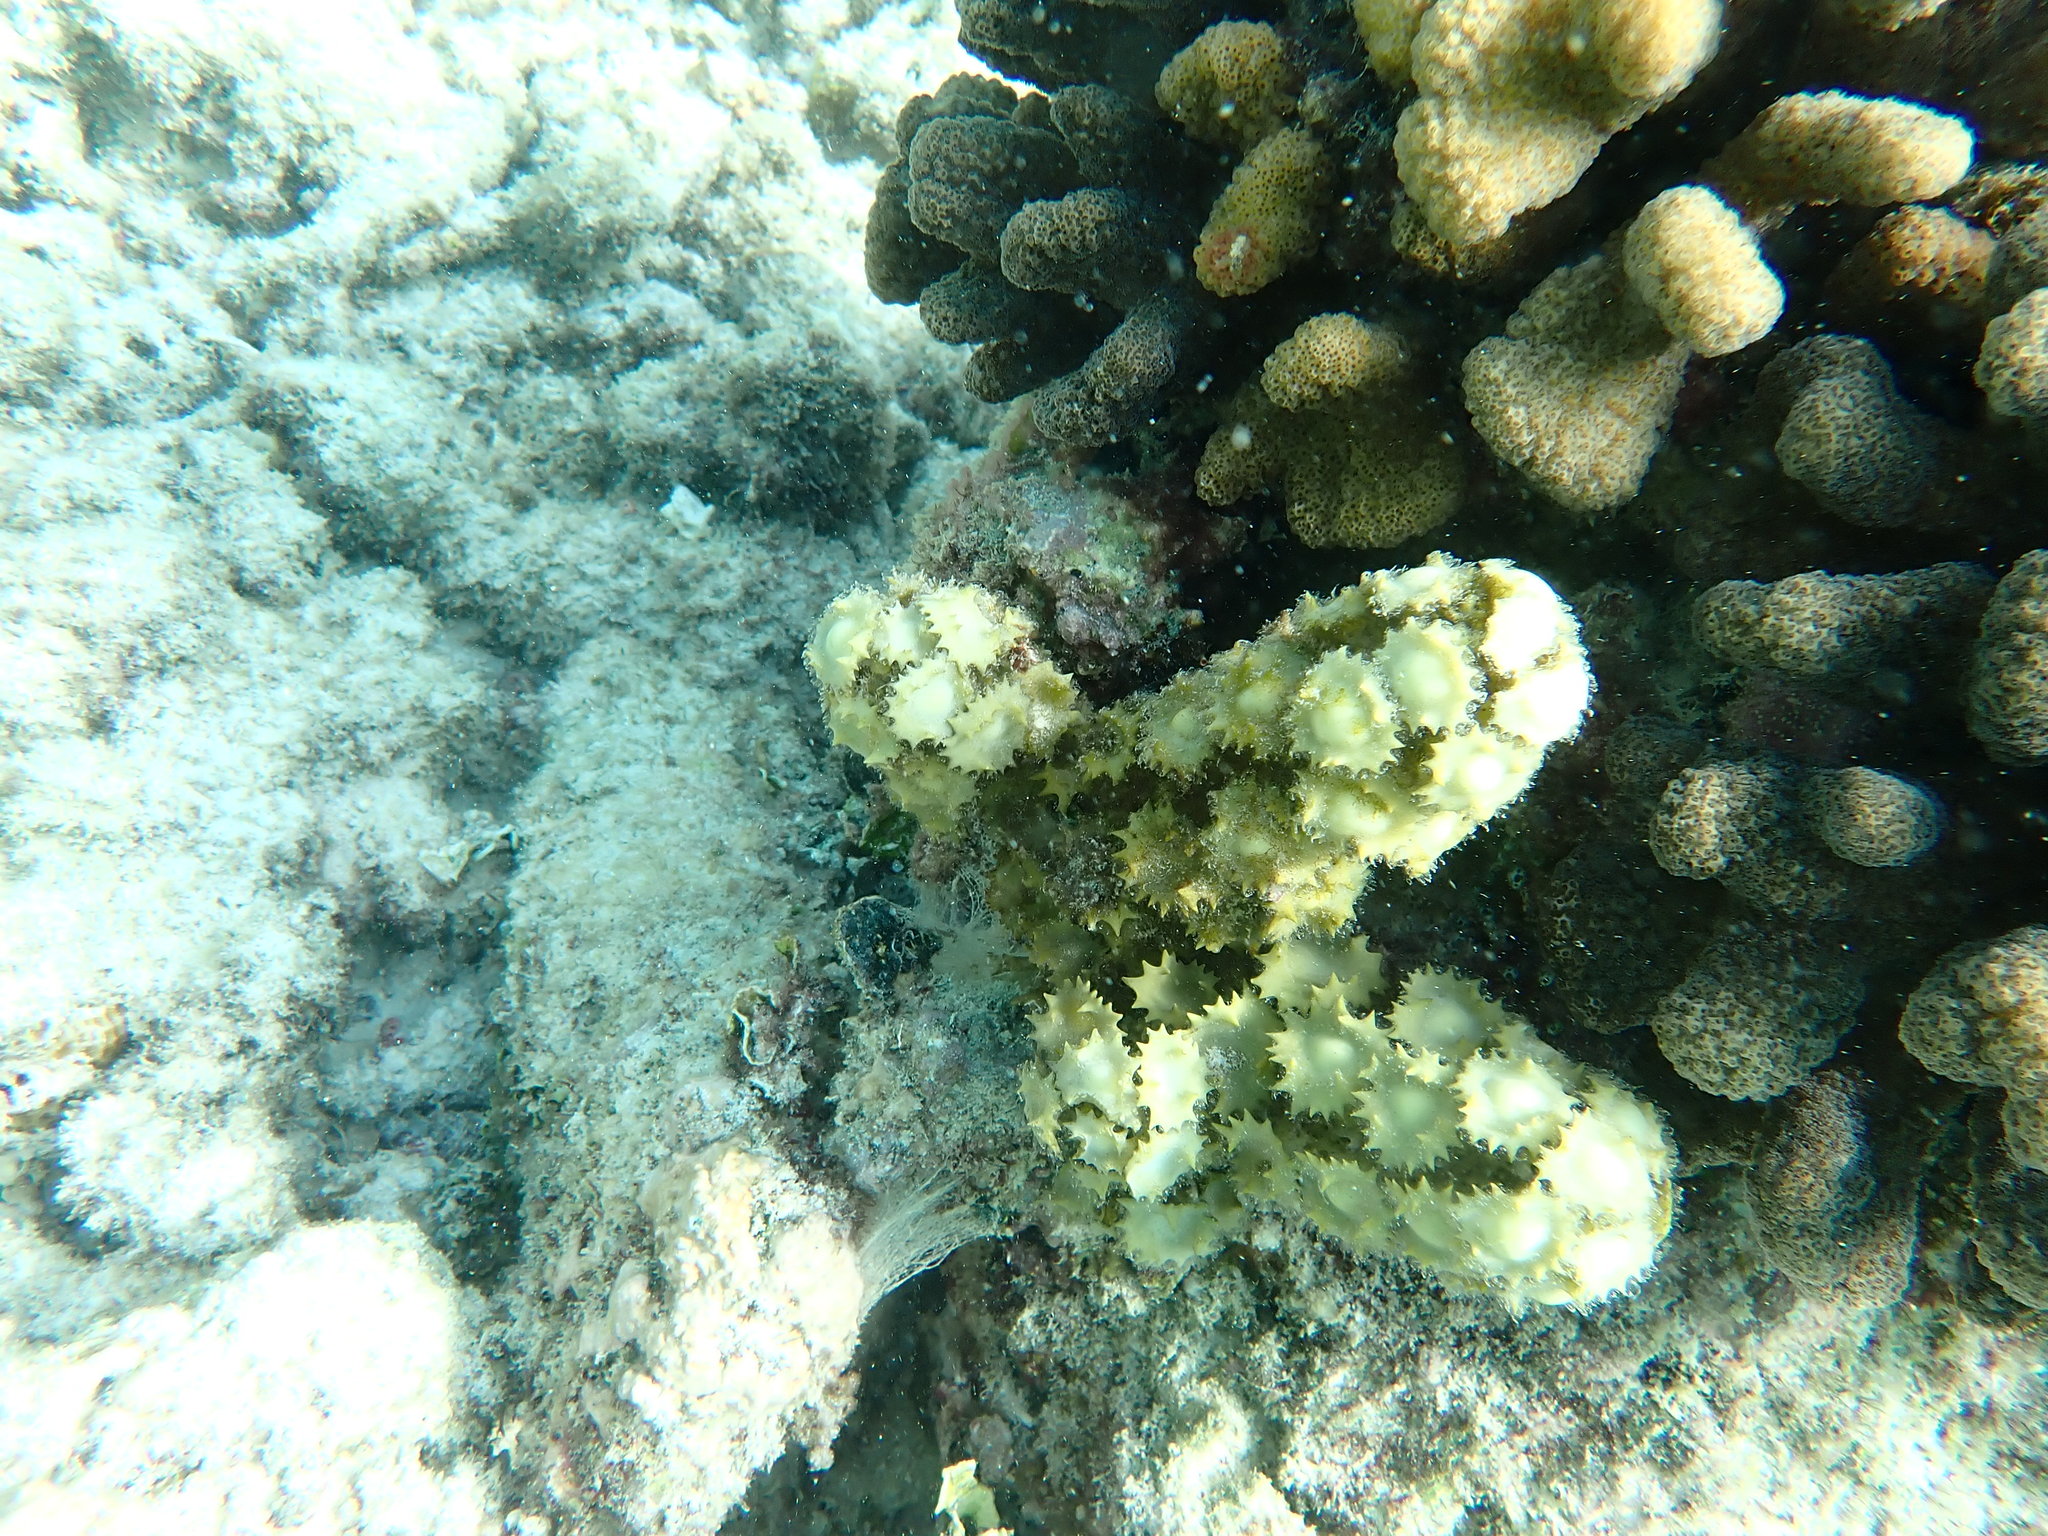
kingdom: Chromista
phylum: Ochrophyta
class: Phaeophyceae
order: Fucales
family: Sargassaceae
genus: Turbinaria
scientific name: Turbinaria ornata
